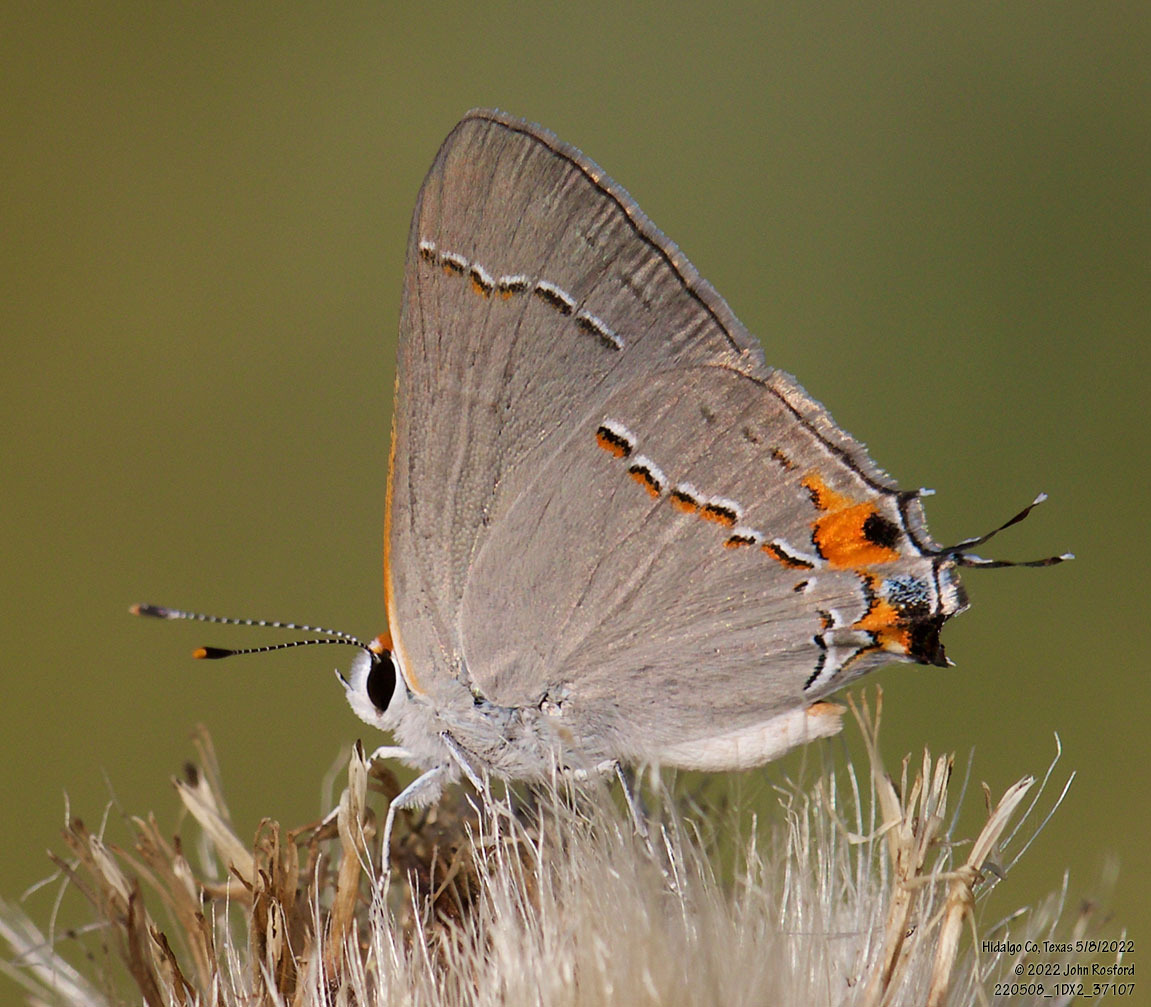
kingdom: Animalia
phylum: Arthropoda
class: Insecta
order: Lepidoptera
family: Lycaenidae
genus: Strymon
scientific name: Strymon melinus
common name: Gray hairstreak
